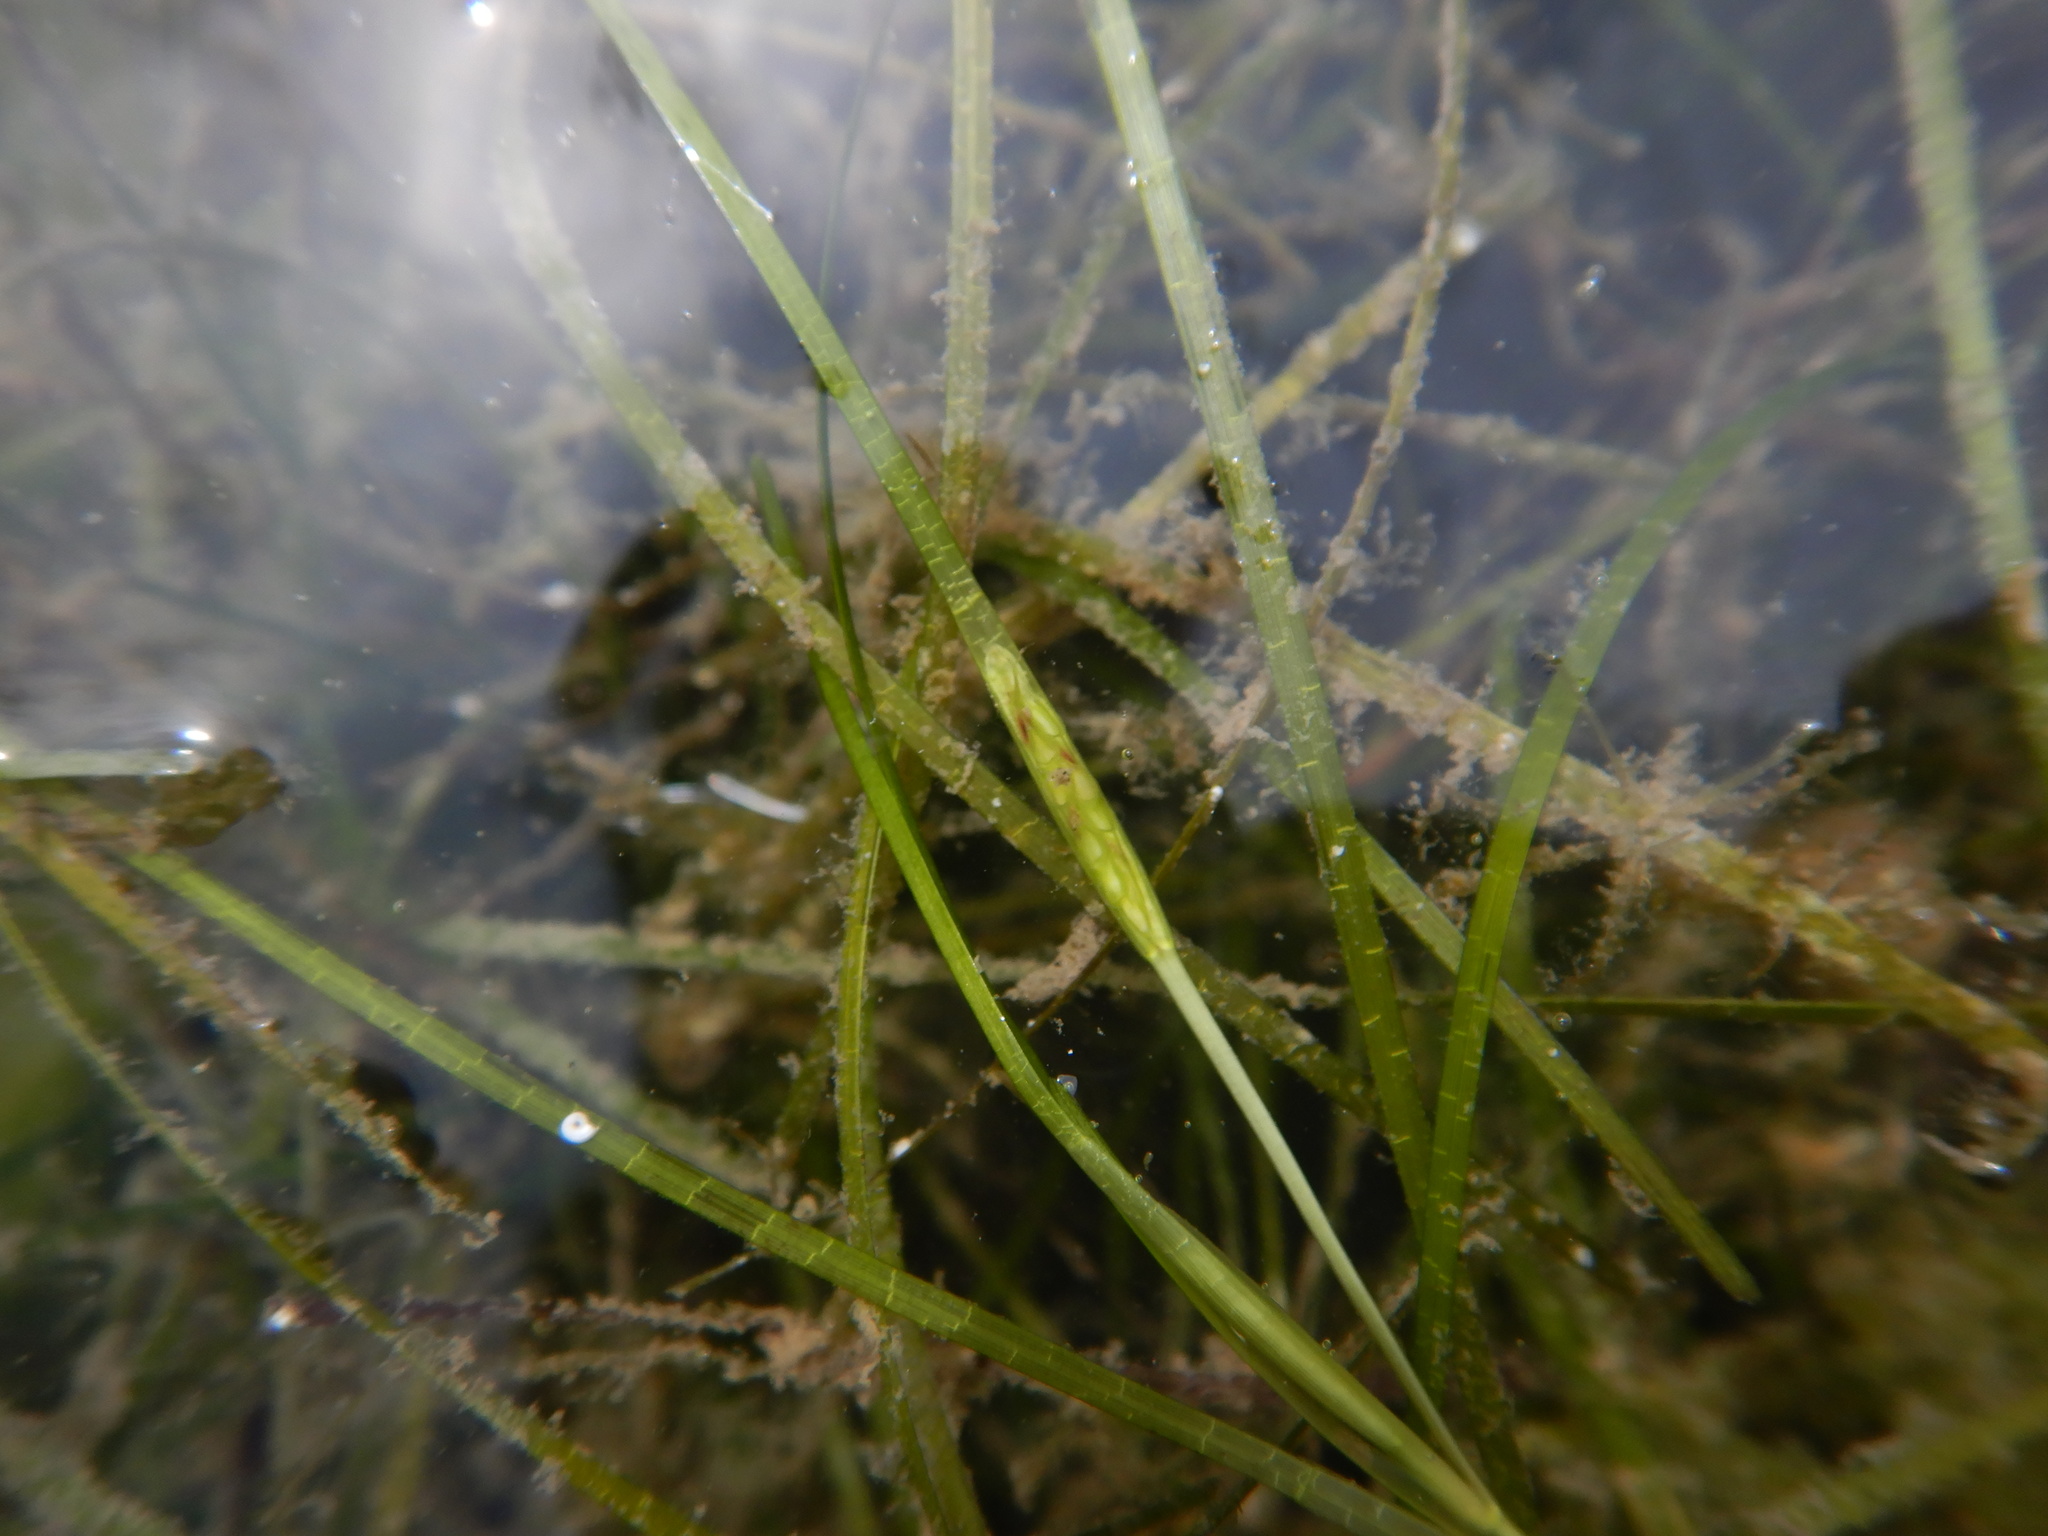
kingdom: Plantae
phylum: Tracheophyta
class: Liliopsida
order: Alismatales
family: Zosteraceae
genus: Zostera
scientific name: Zostera noltii
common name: Dwarf eelgrass
